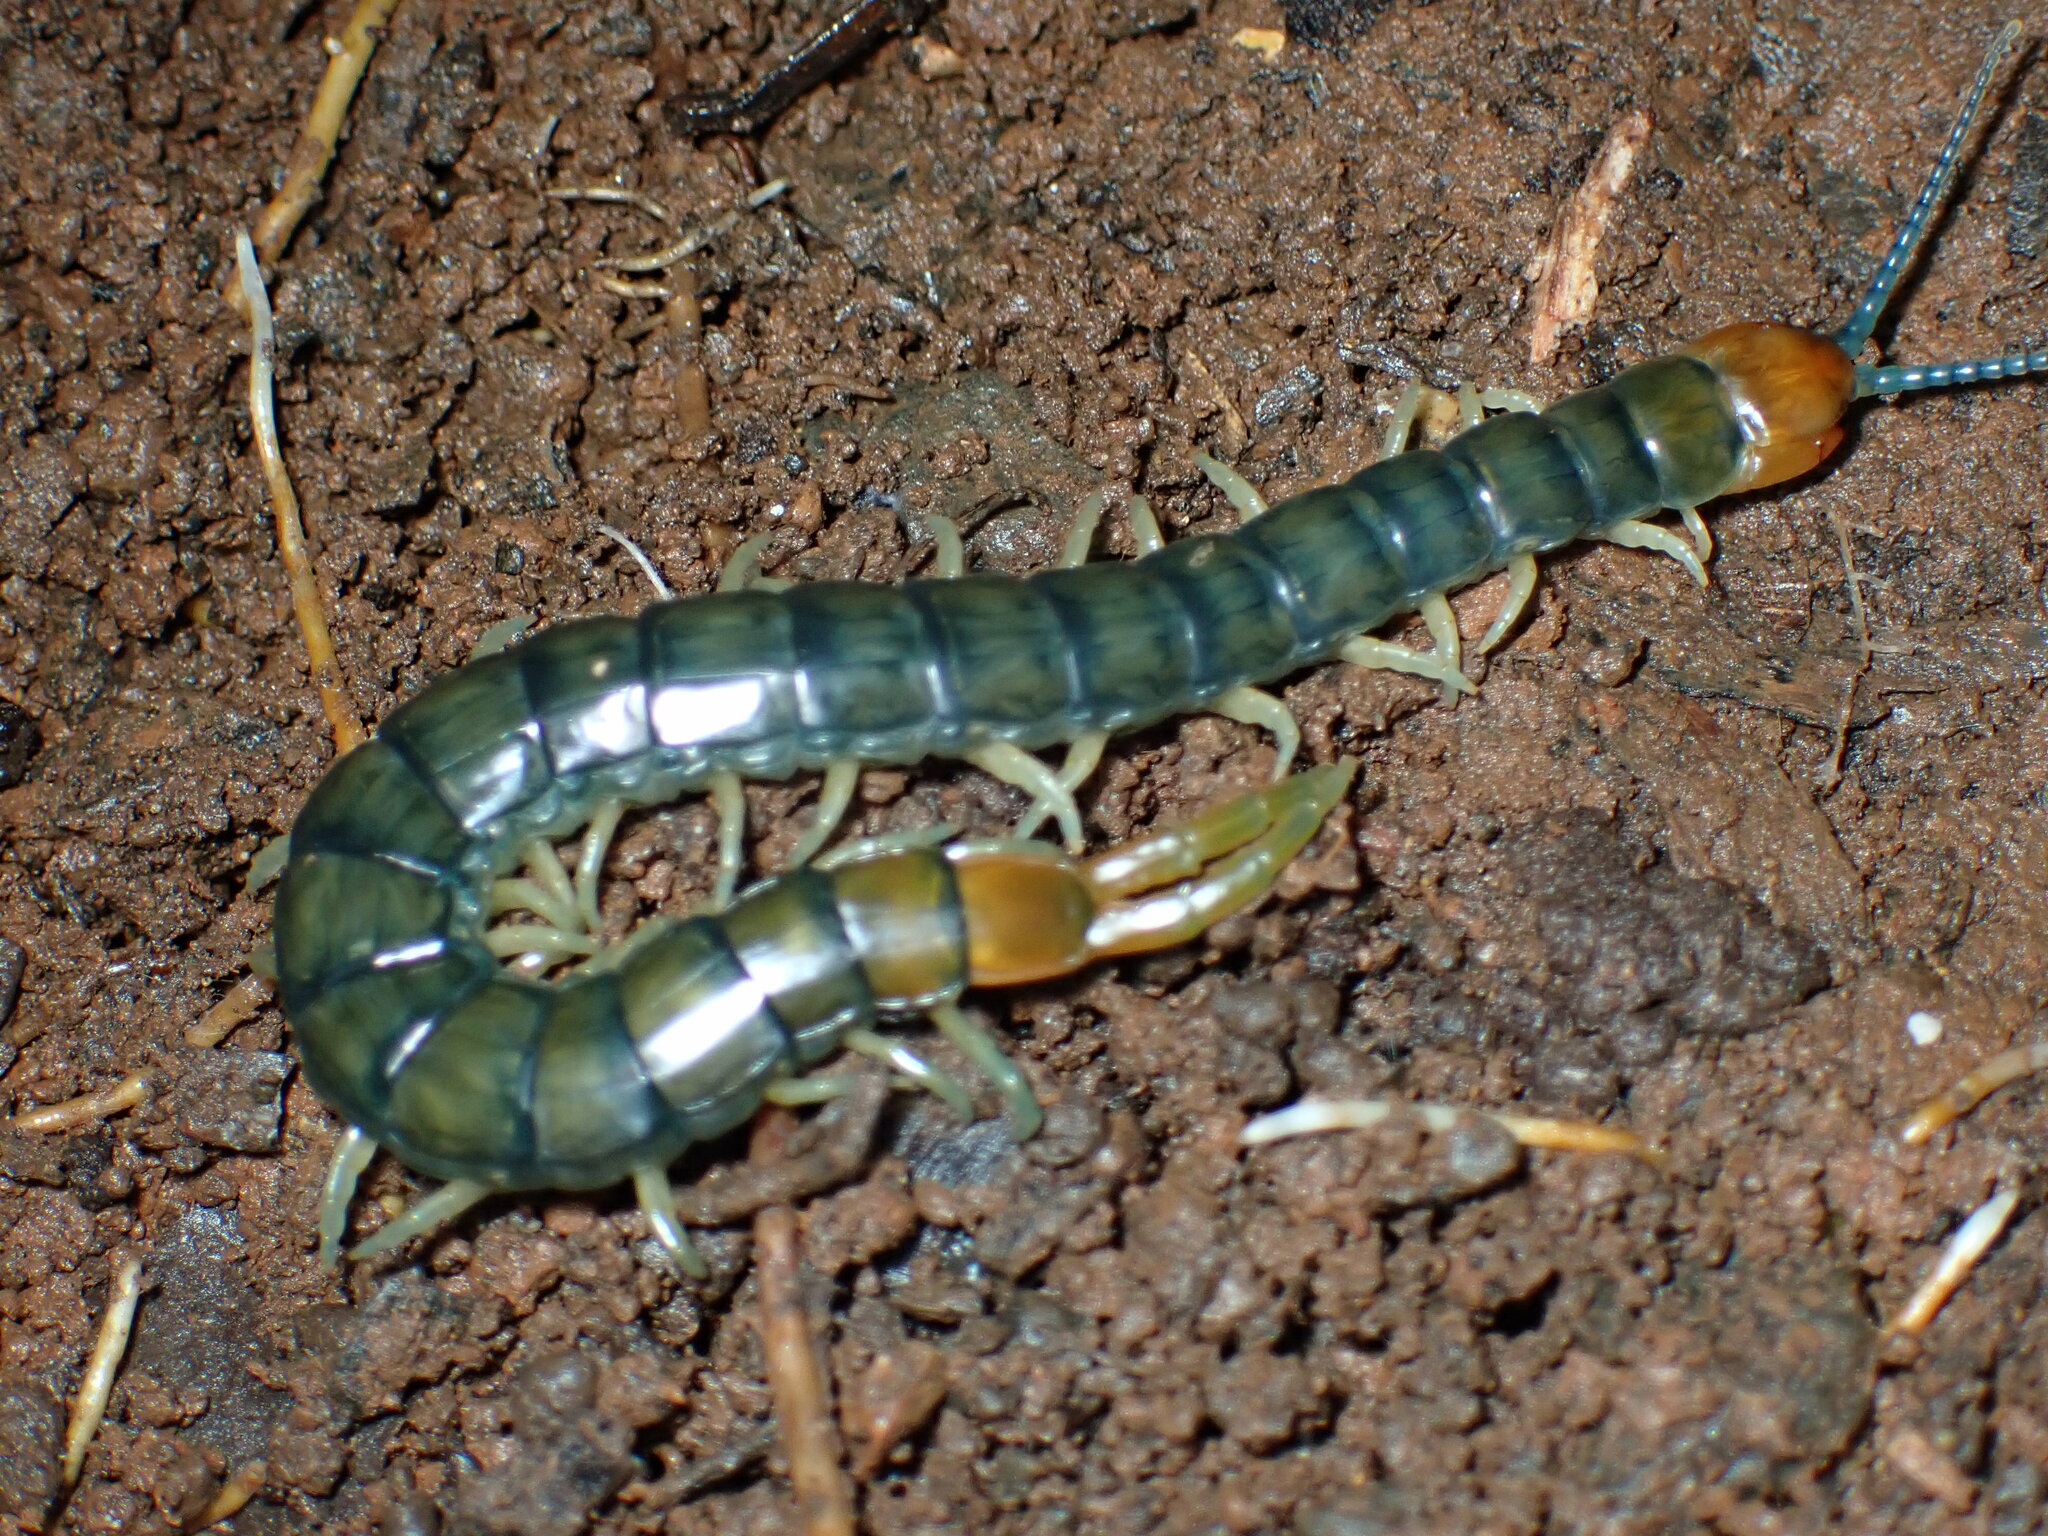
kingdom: Animalia
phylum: Arthropoda
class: Chilopoda
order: Scolopendromorpha
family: Scolopendridae
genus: Cormocephalus
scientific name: Cormocephalus westwoodi
